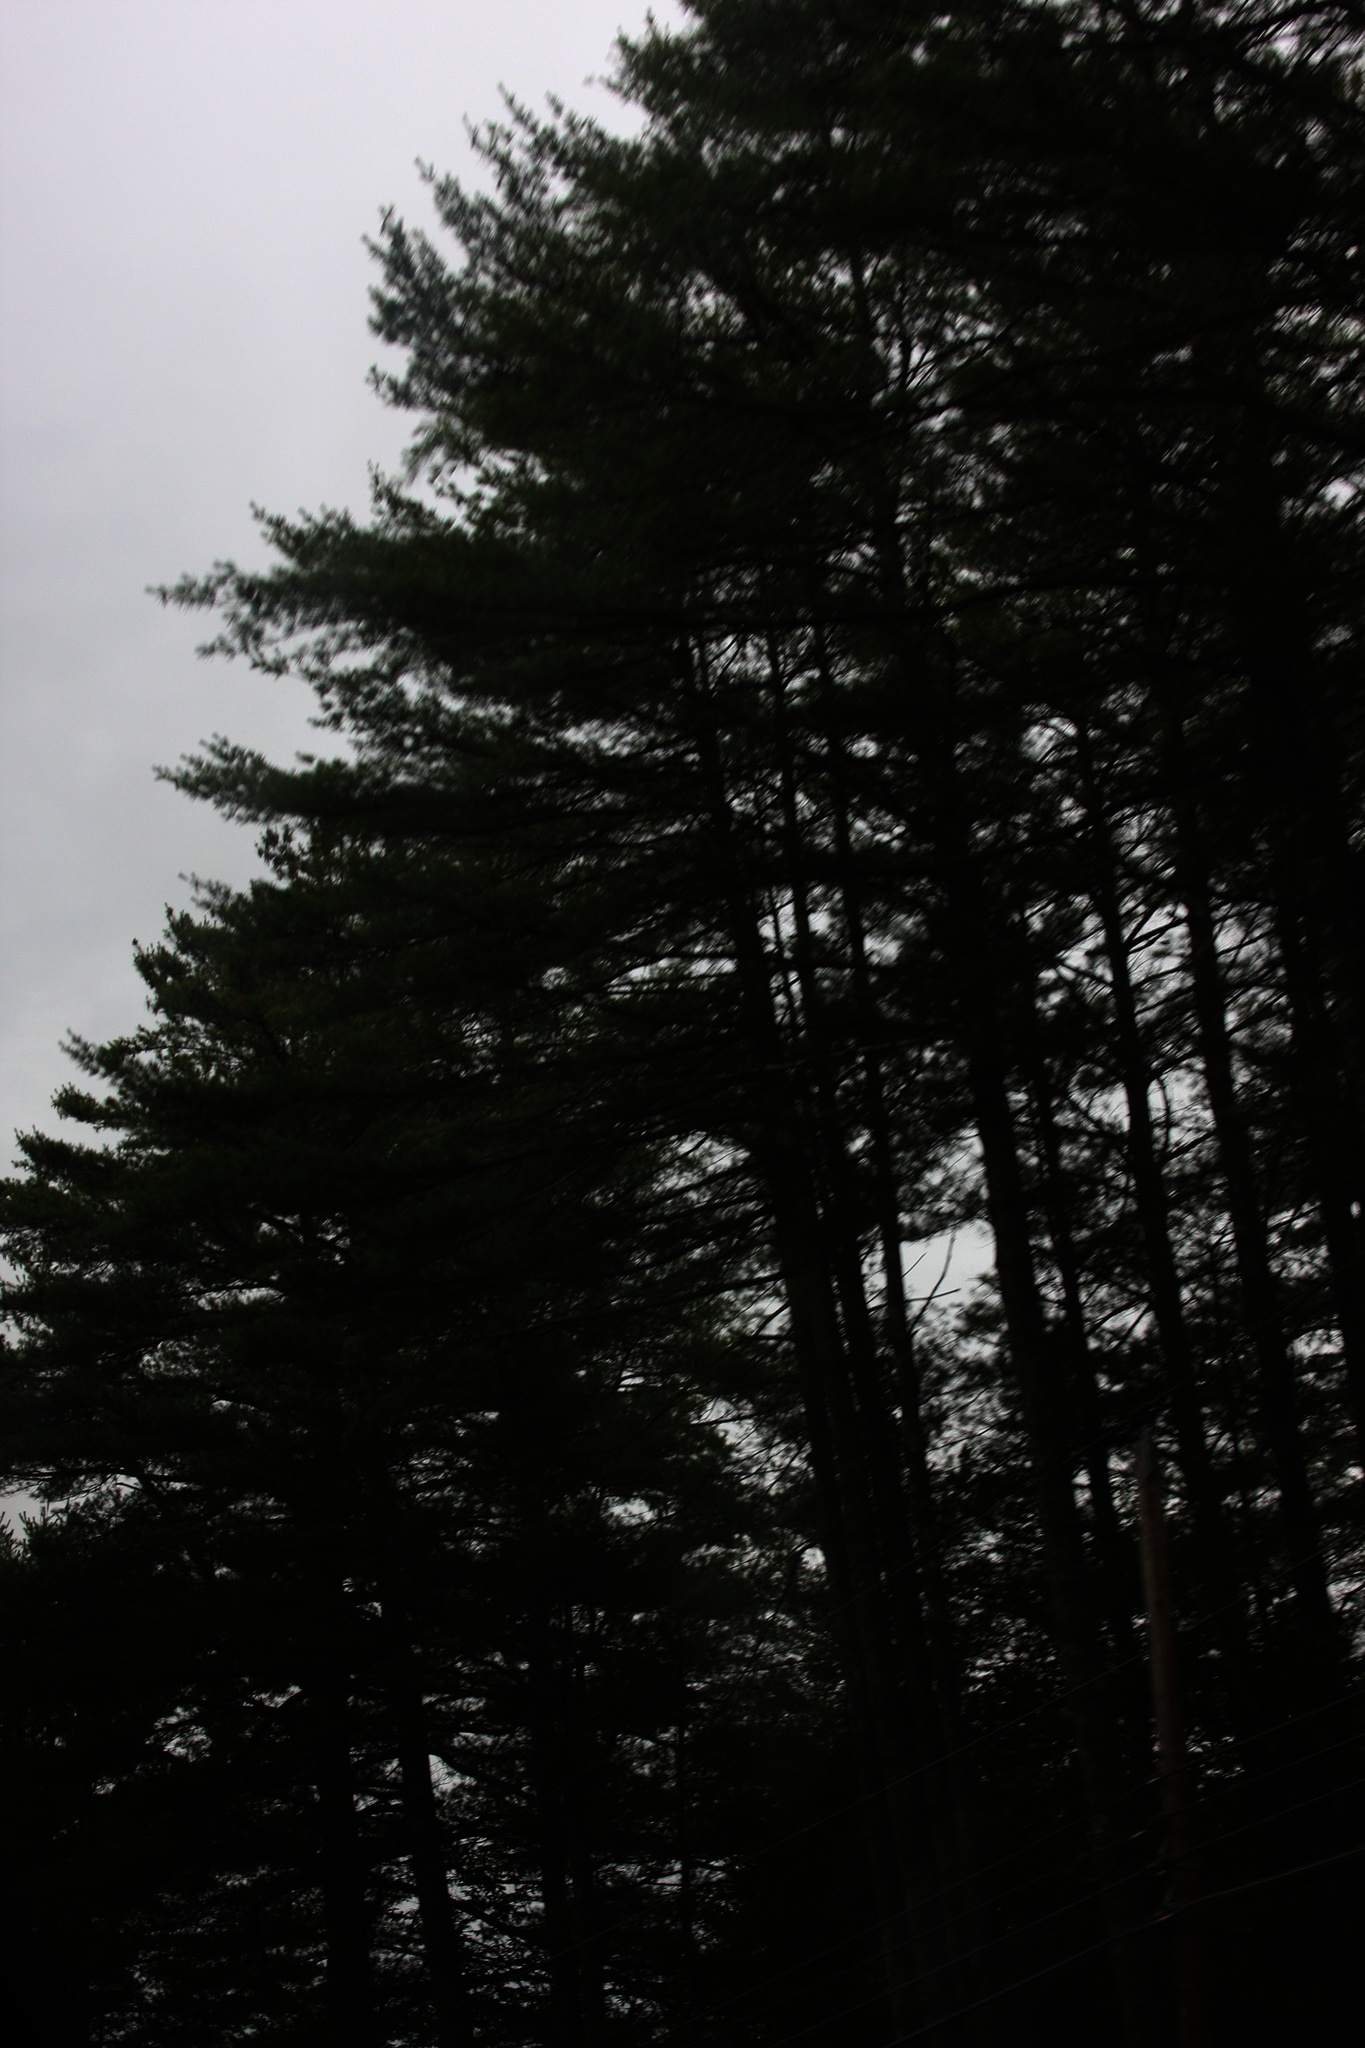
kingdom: Plantae
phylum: Tracheophyta
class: Pinopsida
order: Pinales
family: Pinaceae
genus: Pinus
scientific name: Pinus strobus
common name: Weymouth pine
